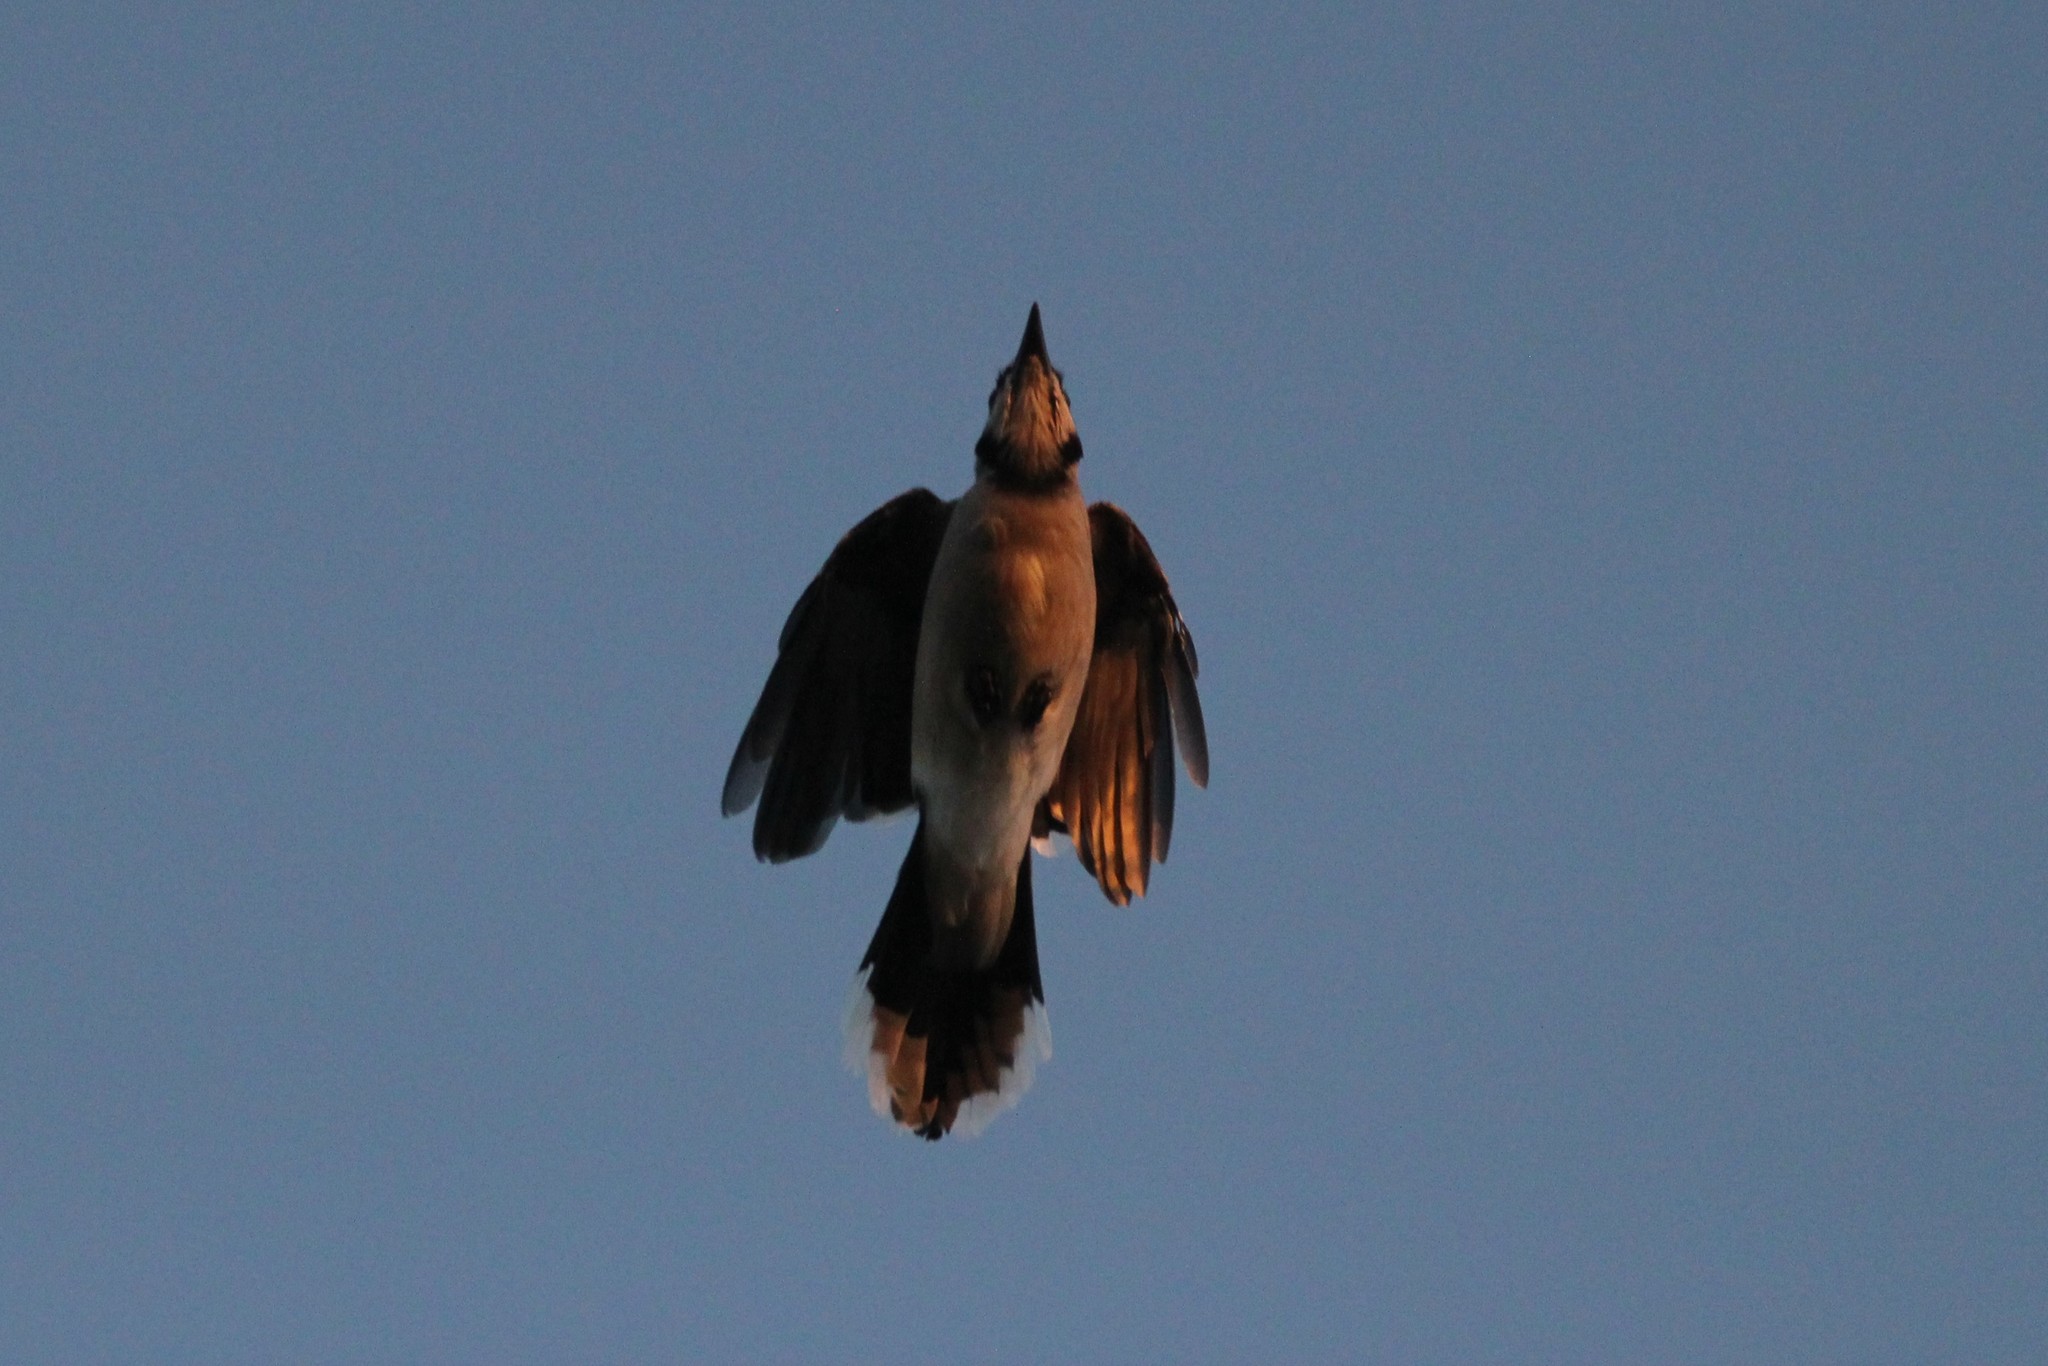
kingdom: Animalia
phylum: Chordata
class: Aves
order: Passeriformes
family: Corvidae
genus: Cyanocitta
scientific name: Cyanocitta cristata
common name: Blue jay
